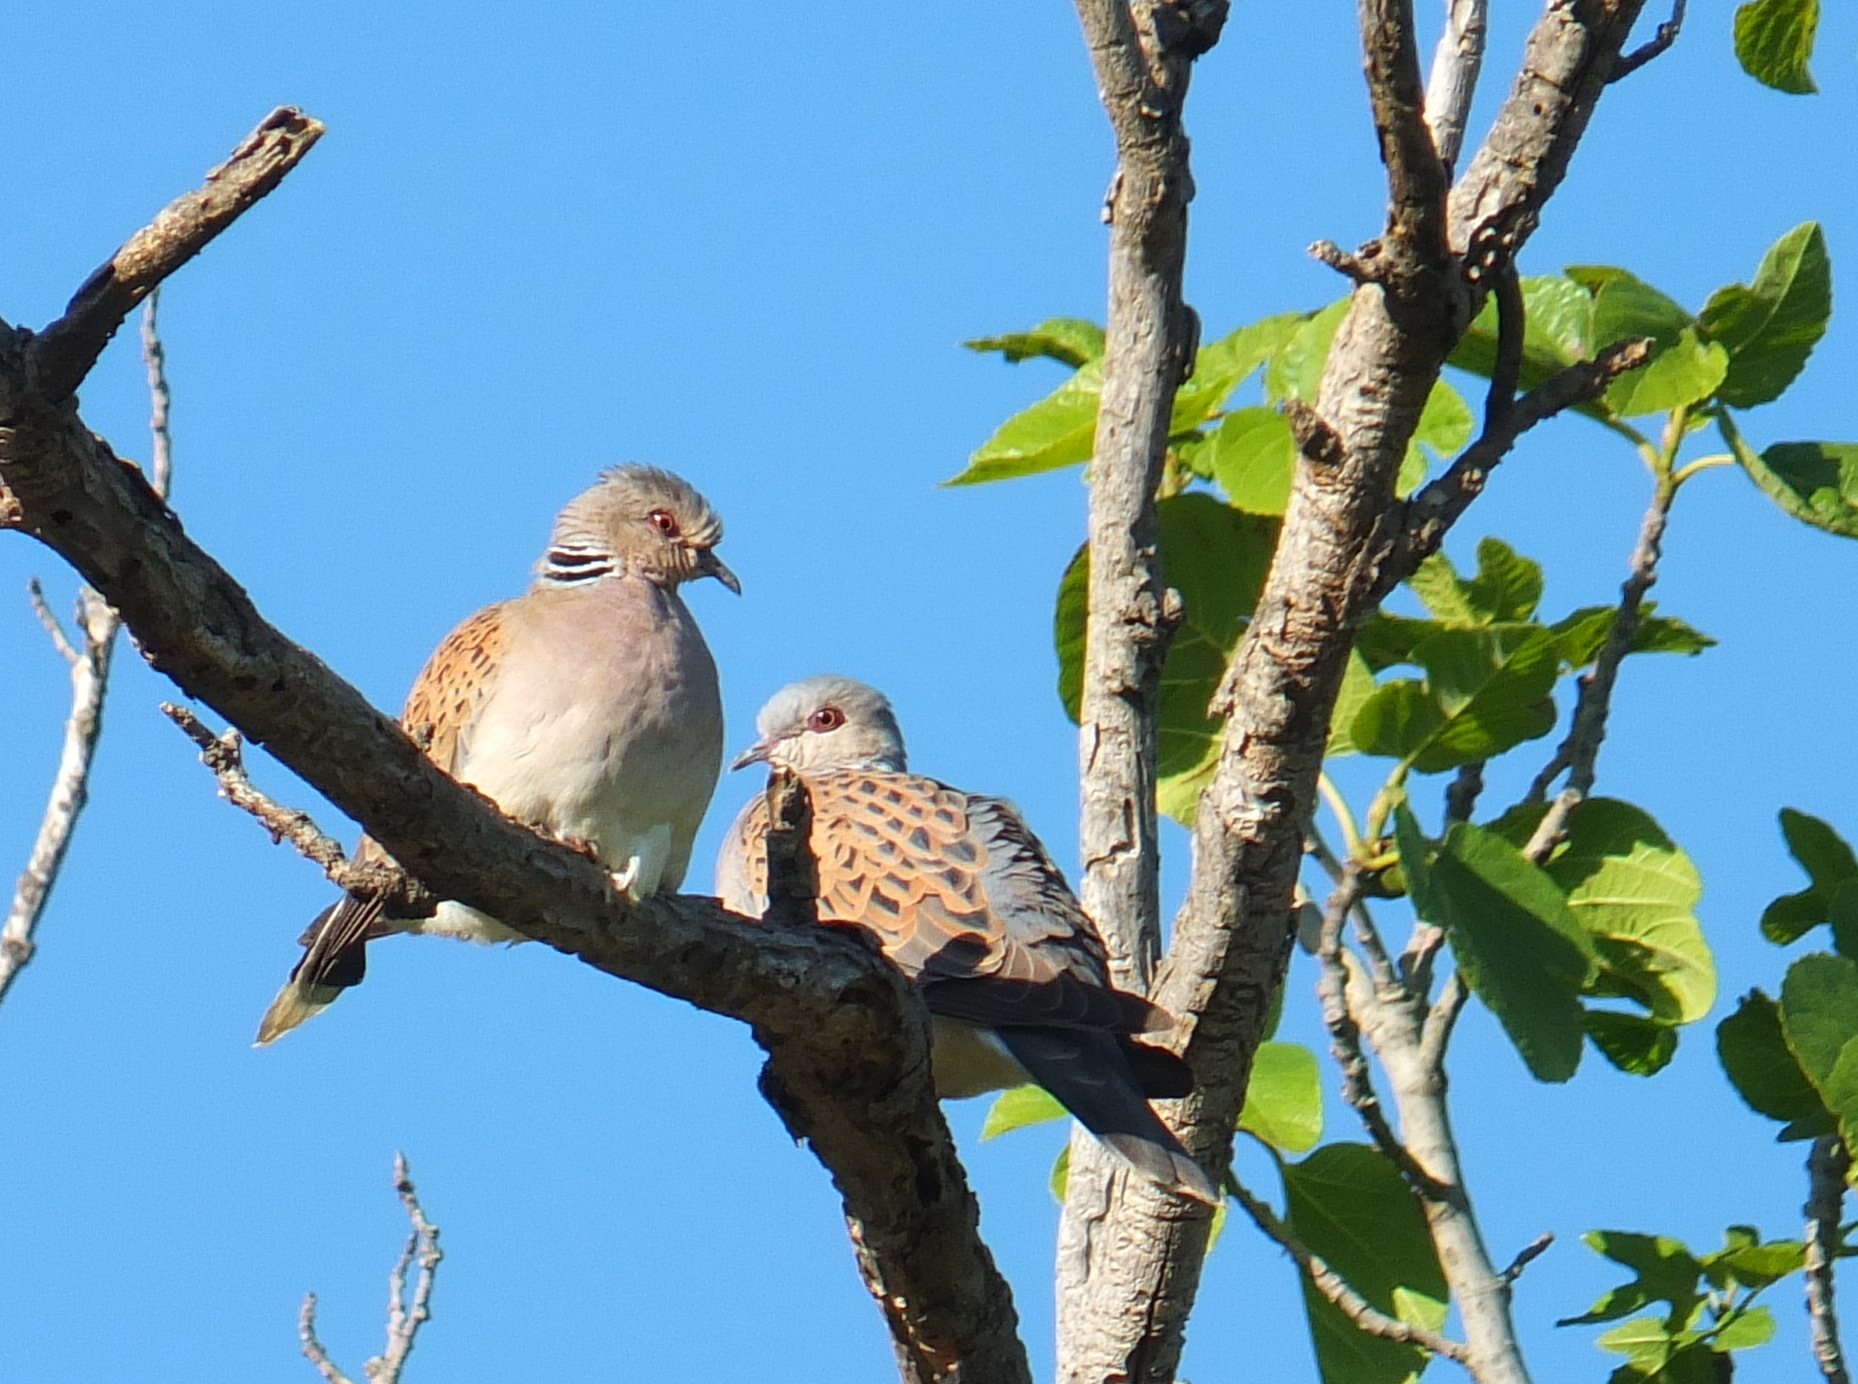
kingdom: Animalia
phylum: Chordata
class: Aves
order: Columbiformes
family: Columbidae
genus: Streptopelia
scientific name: Streptopelia turtur
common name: European turtle dove
